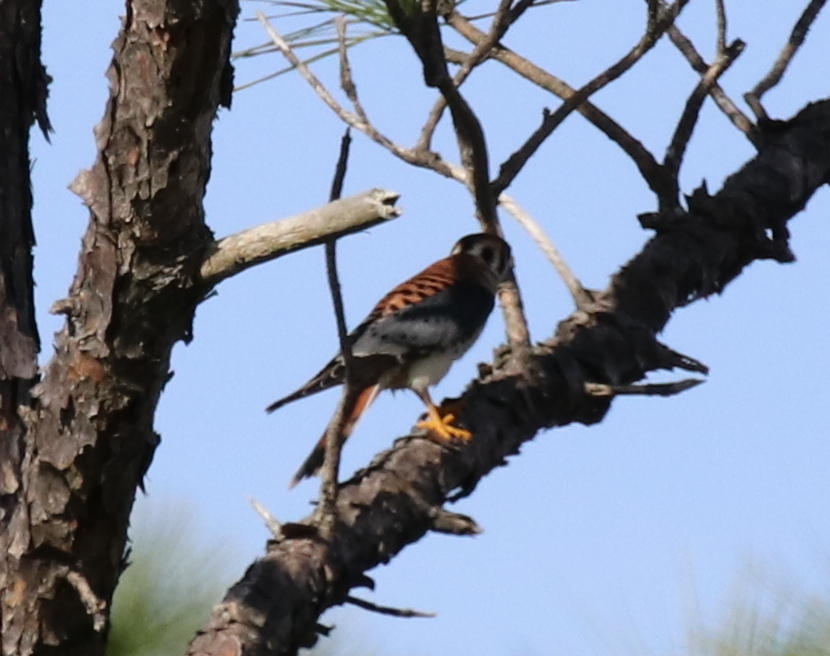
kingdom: Animalia
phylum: Chordata
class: Aves
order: Falconiformes
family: Falconidae
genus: Falco
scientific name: Falco sparverius
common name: American kestrel
